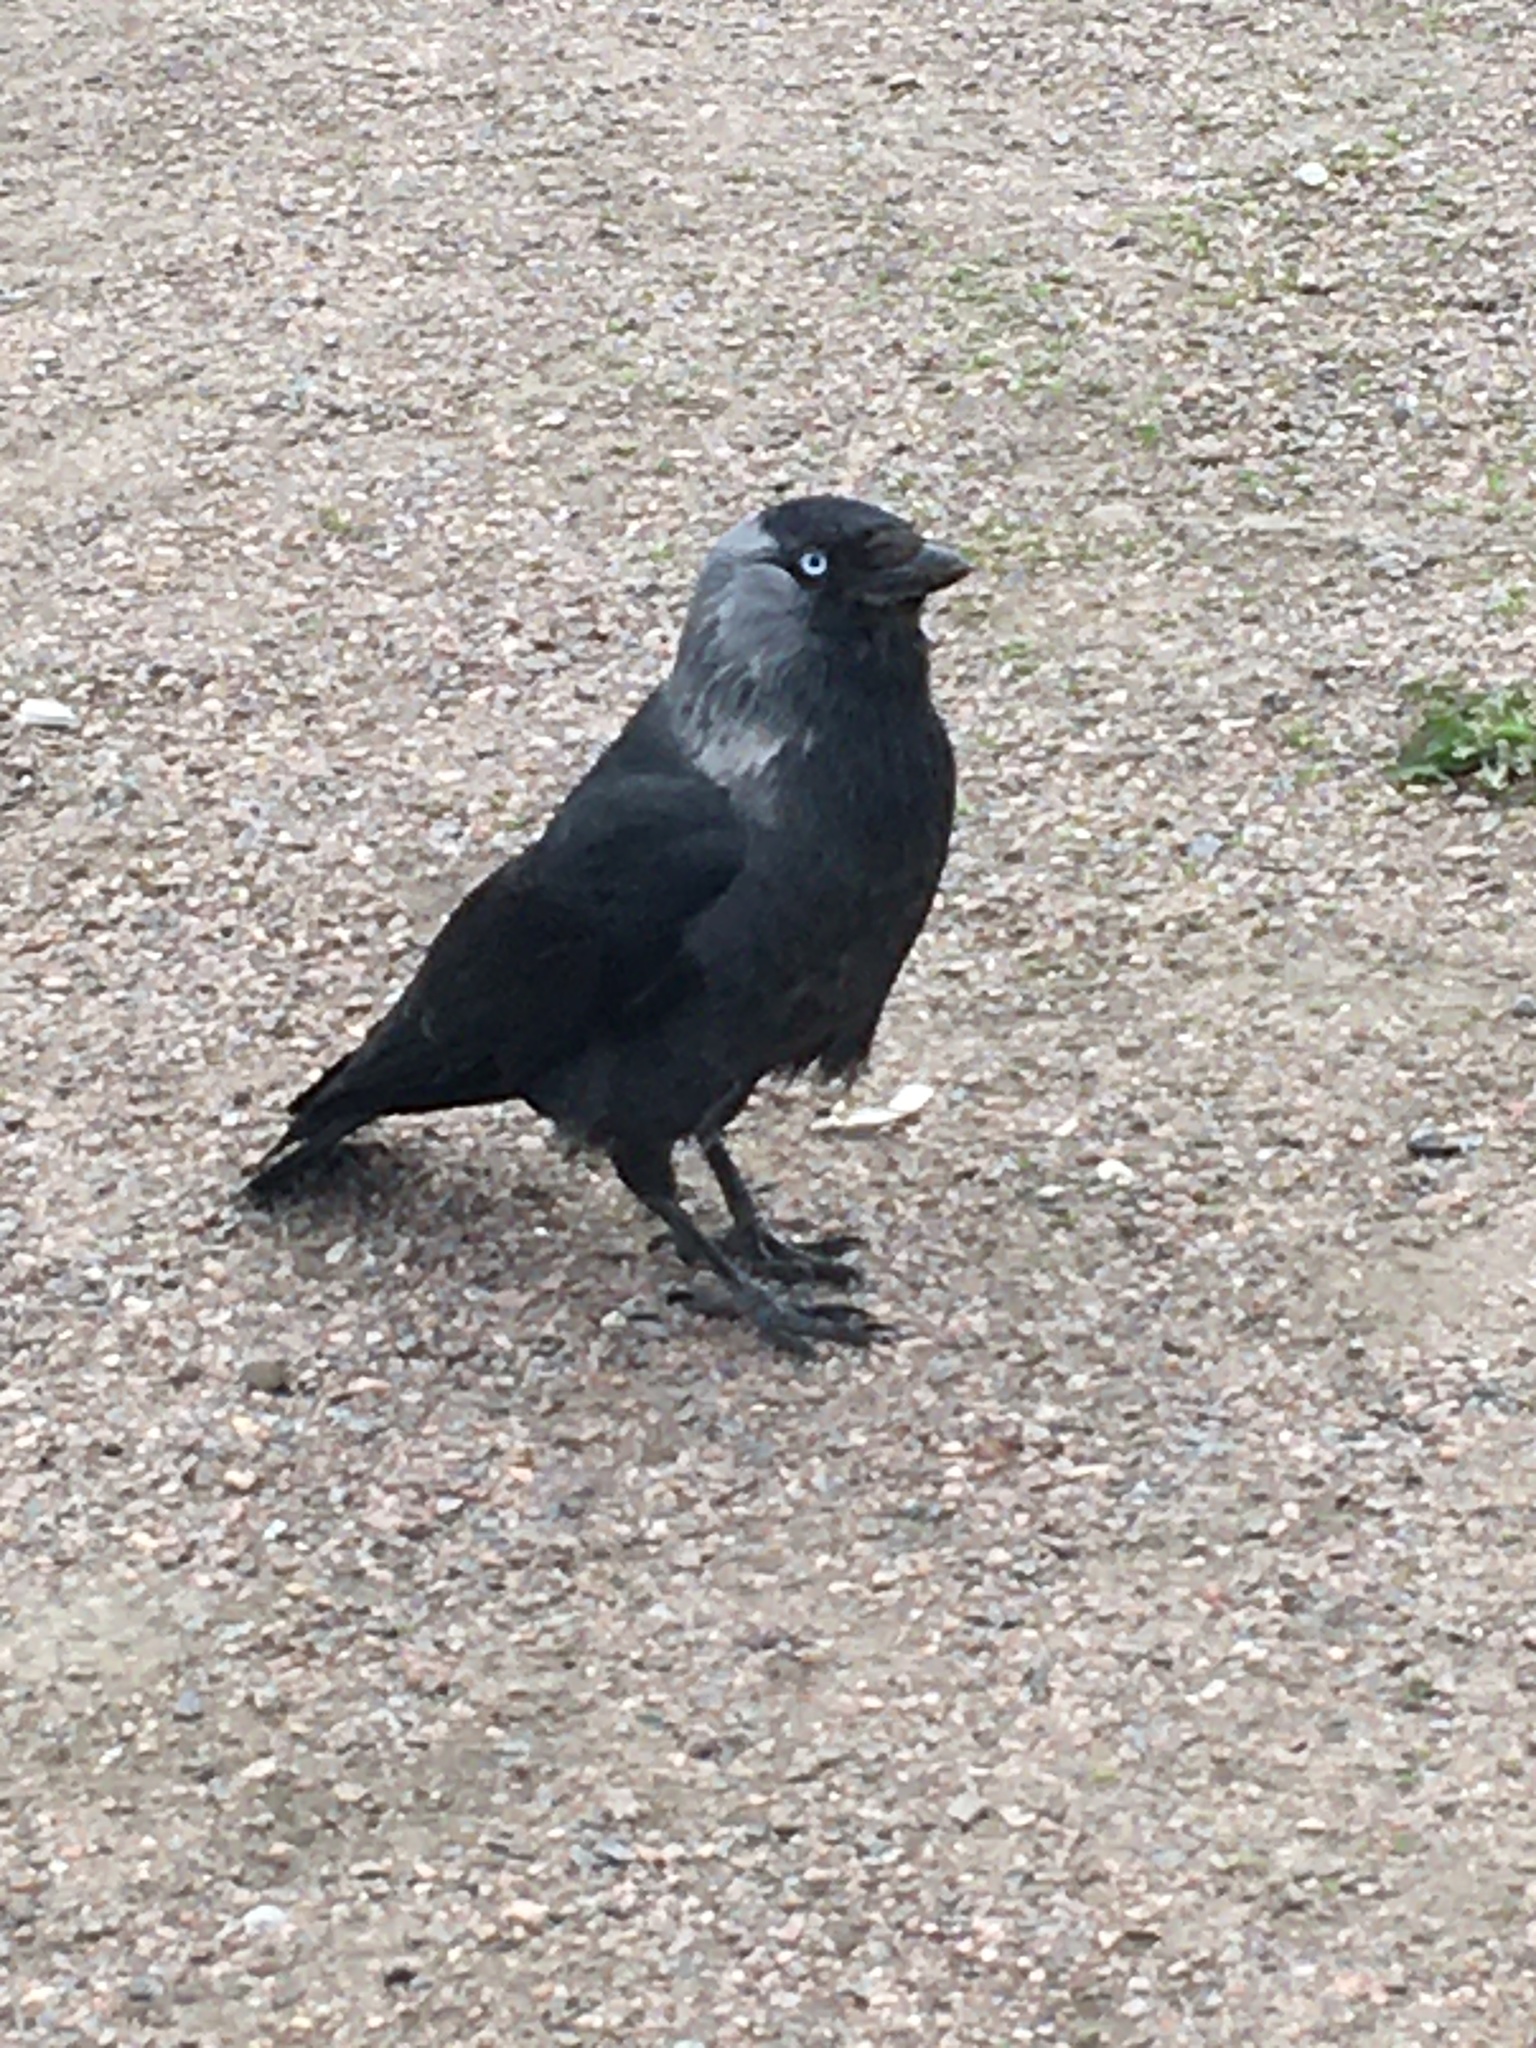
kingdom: Animalia
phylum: Chordata
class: Aves
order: Passeriformes
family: Corvidae
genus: Coloeus
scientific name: Coloeus monedula
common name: Western jackdaw
